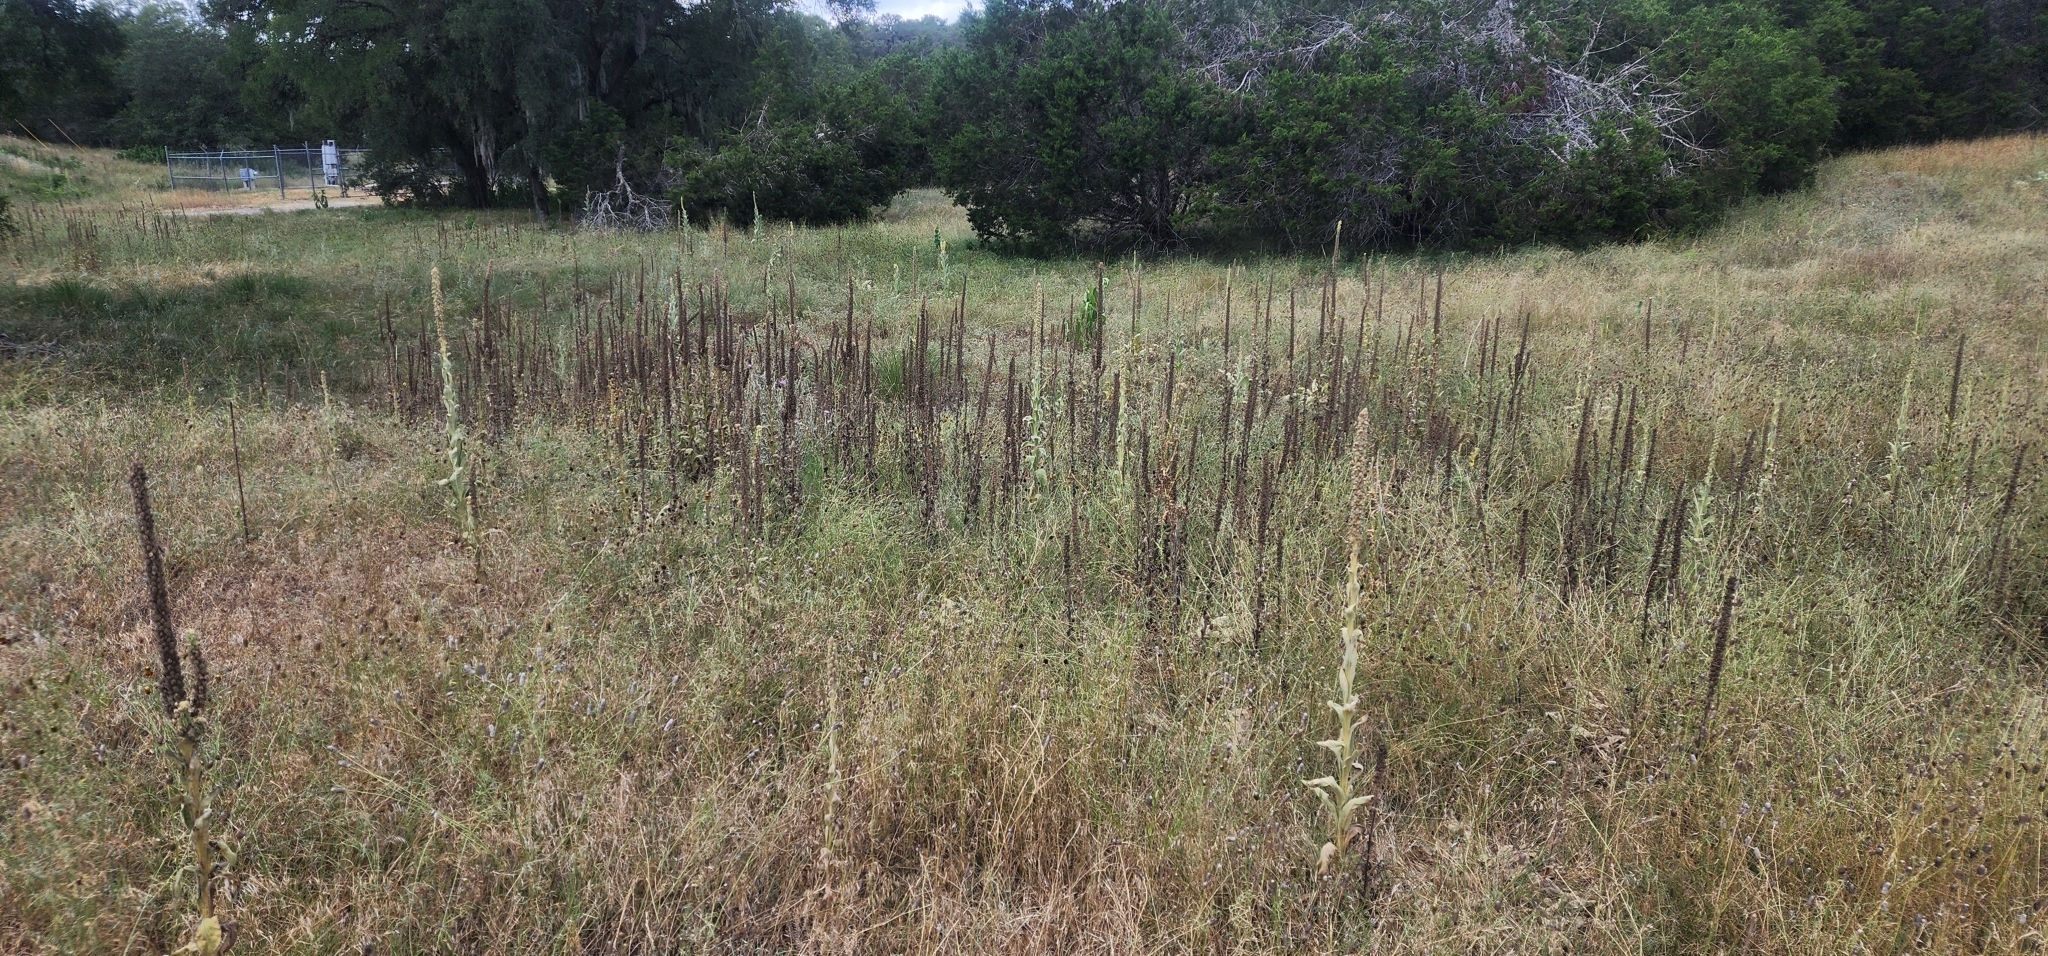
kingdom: Plantae
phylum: Tracheophyta
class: Magnoliopsida
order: Lamiales
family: Scrophulariaceae
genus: Verbascum
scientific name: Verbascum thapsus
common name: Common mullein
